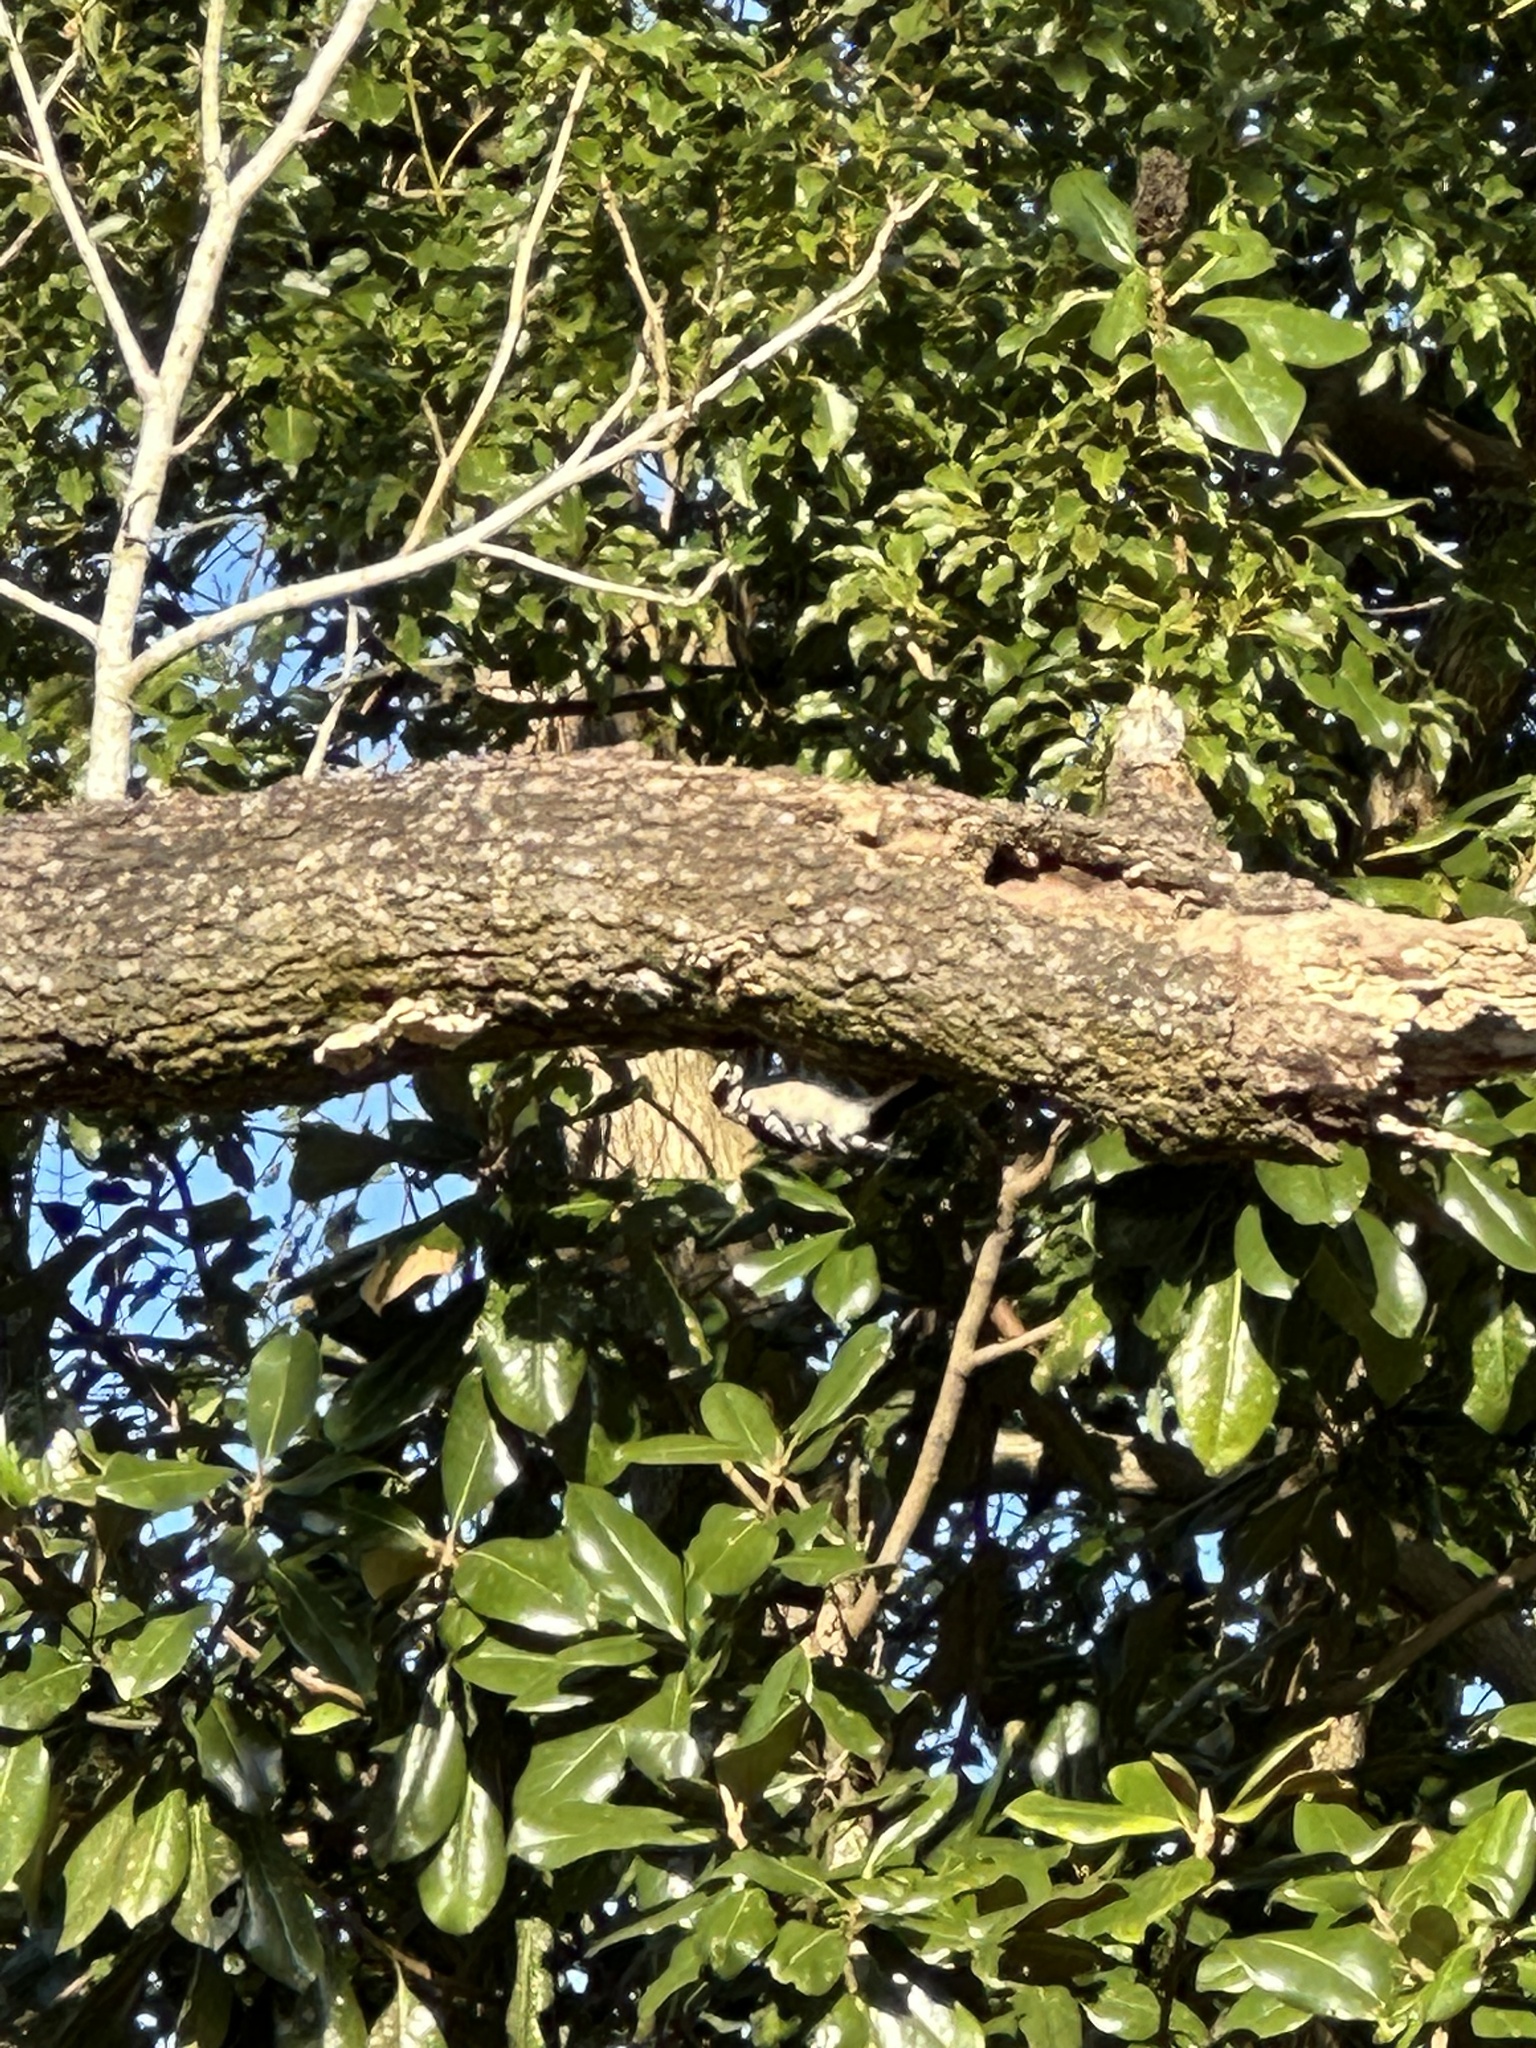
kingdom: Animalia
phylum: Chordata
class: Aves
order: Piciformes
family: Picidae
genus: Dryobates
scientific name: Dryobates pubescens
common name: Downy woodpecker
